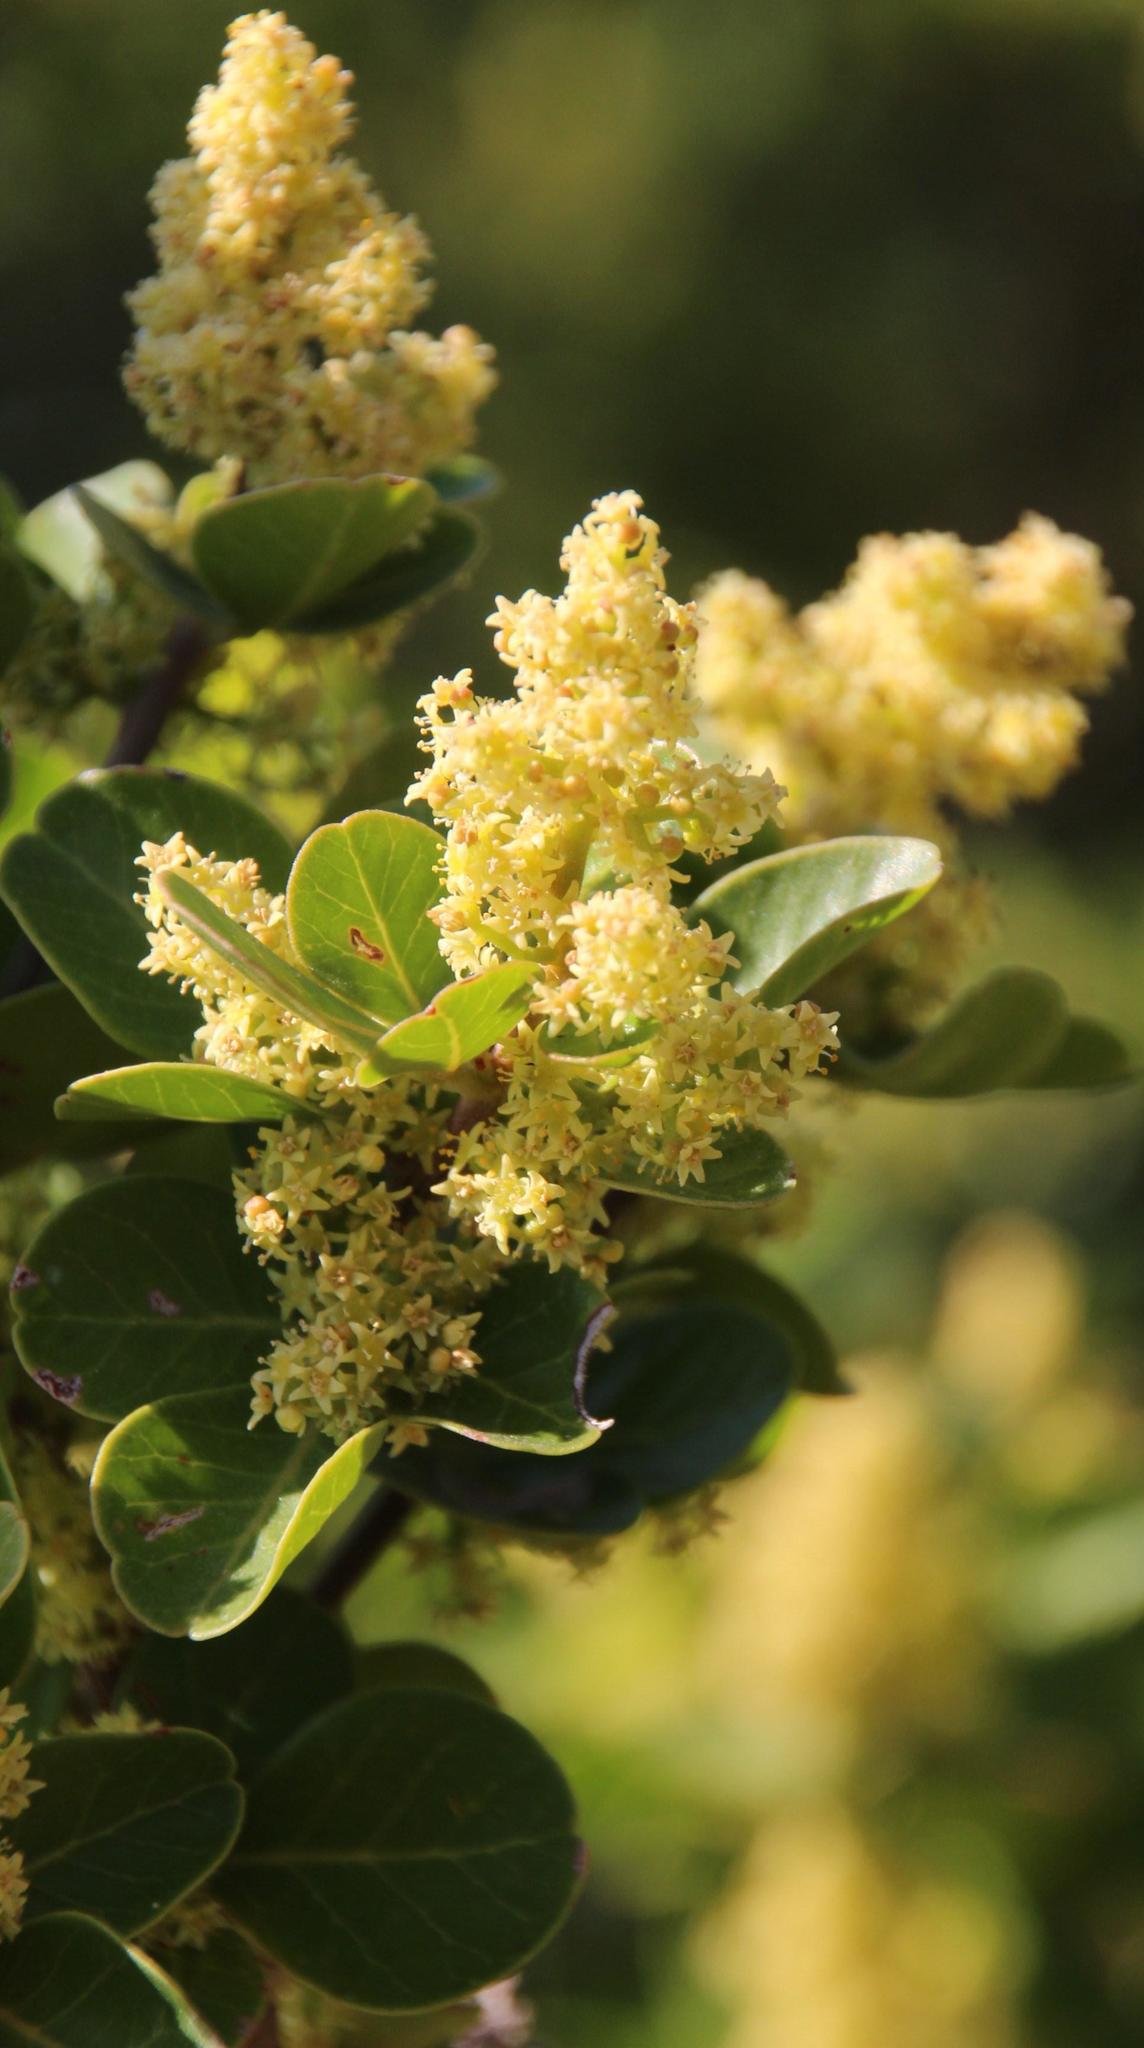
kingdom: Plantae
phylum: Tracheophyta
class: Magnoliopsida
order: Sapindales
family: Anacardiaceae
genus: Searsia
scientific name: Searsia lucida
